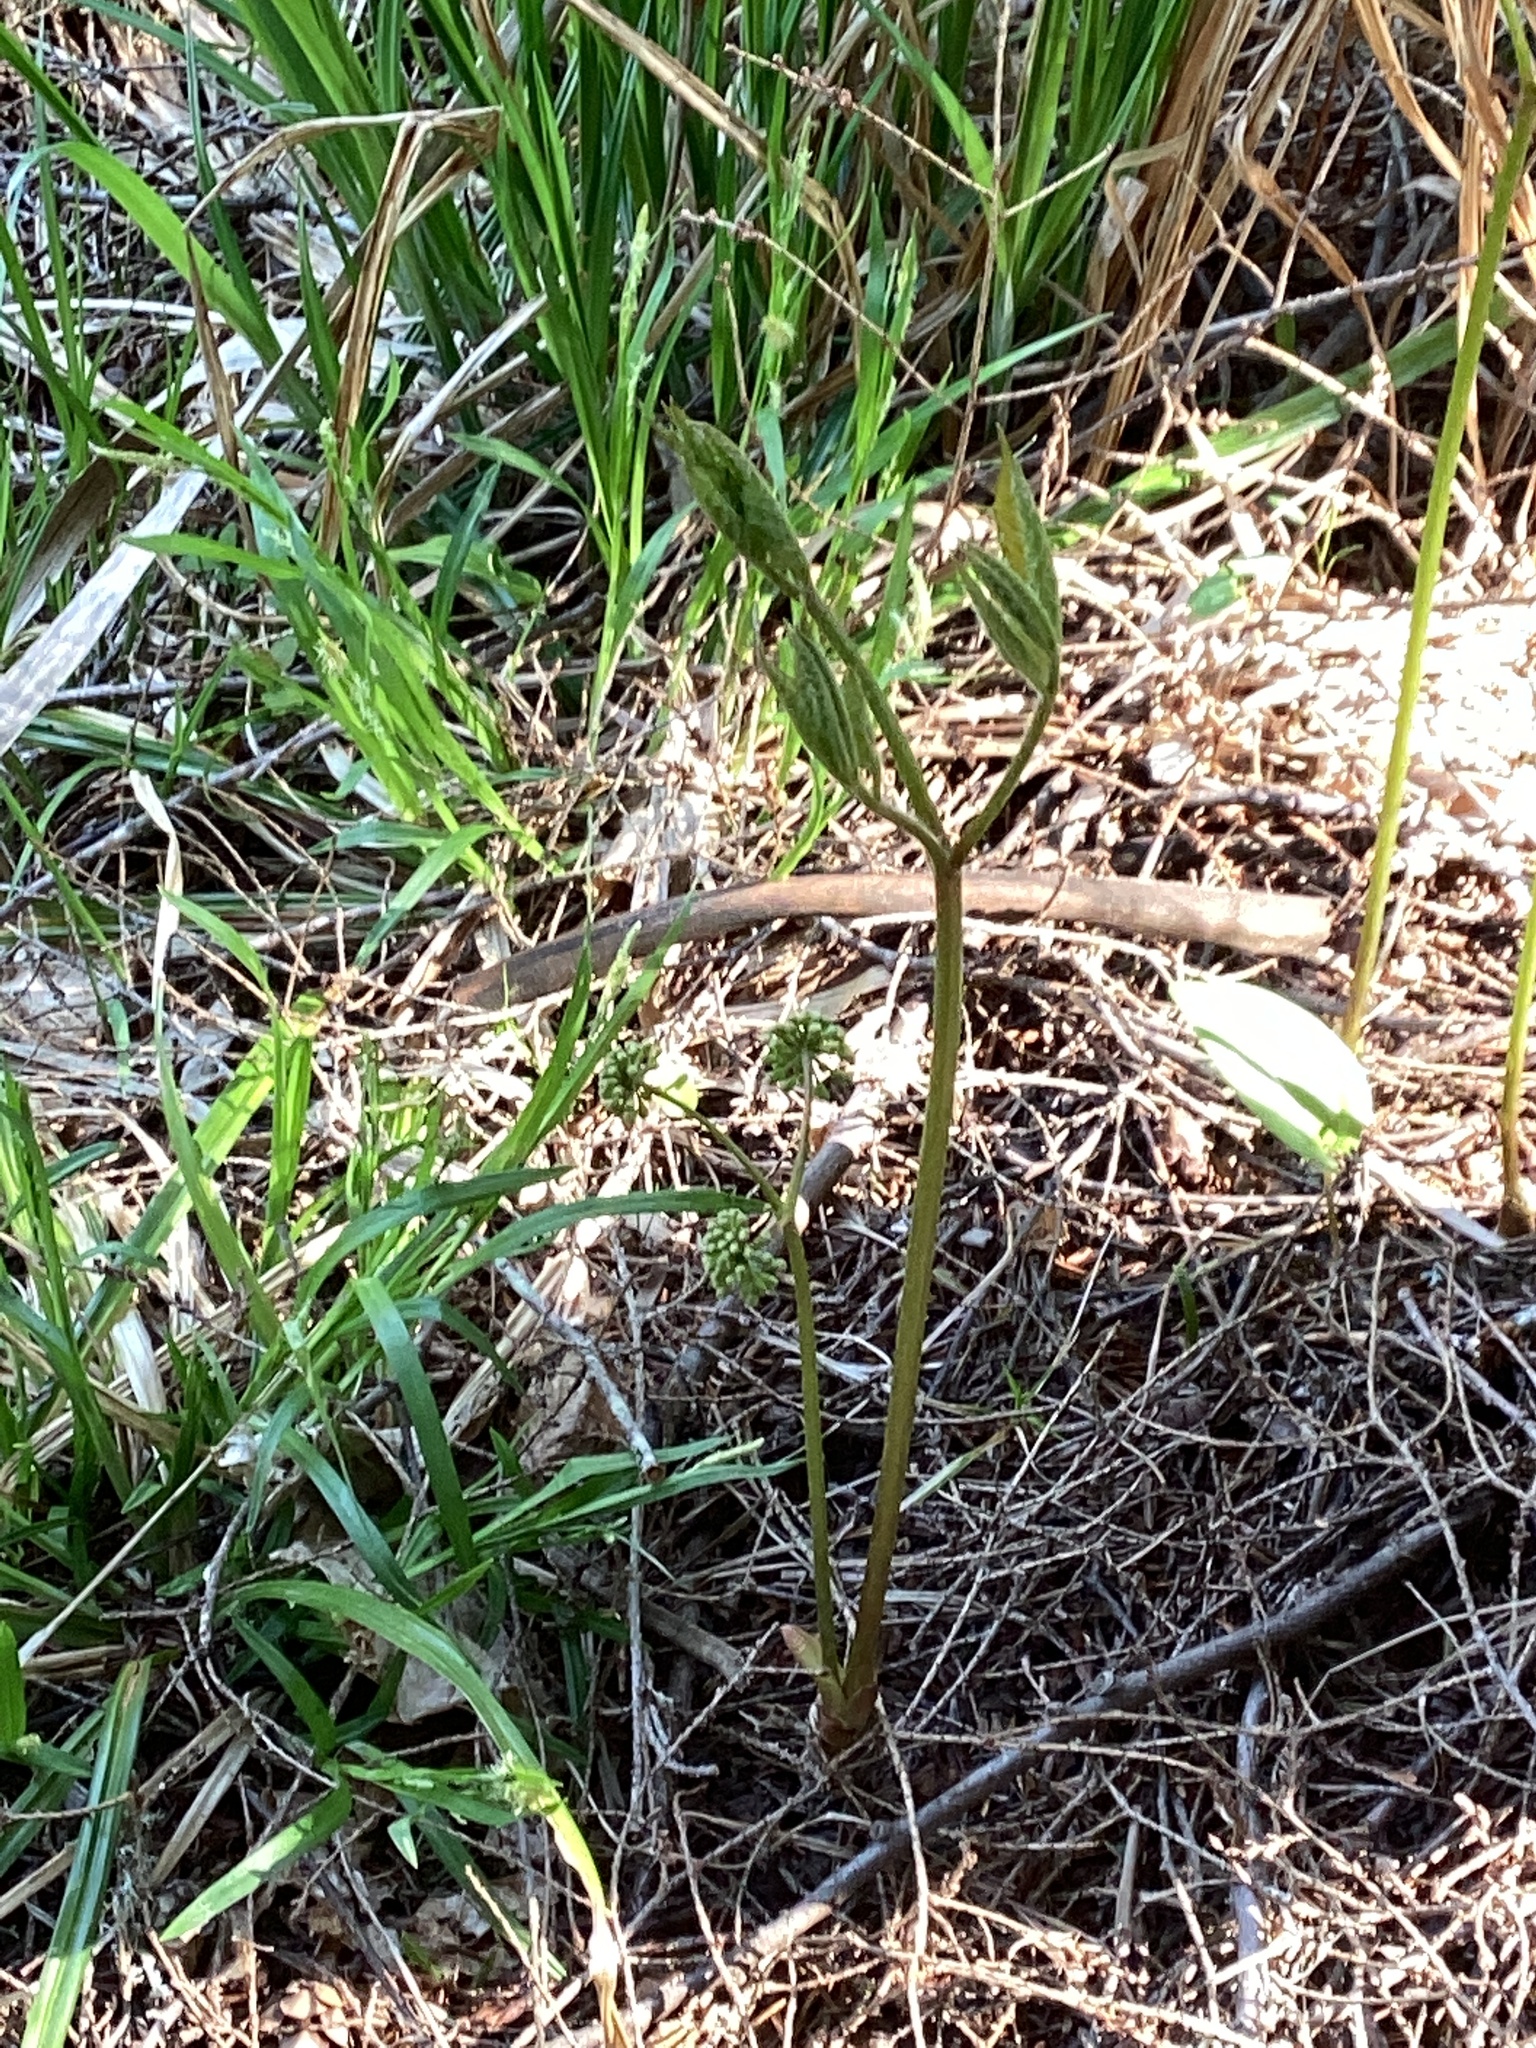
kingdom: Plantae
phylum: Tracheophyta
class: Magnoliopsida
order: Apiales
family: Araliaceae
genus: Aralia
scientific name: Aralia nudicaulis
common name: Wild sarsaparilla
